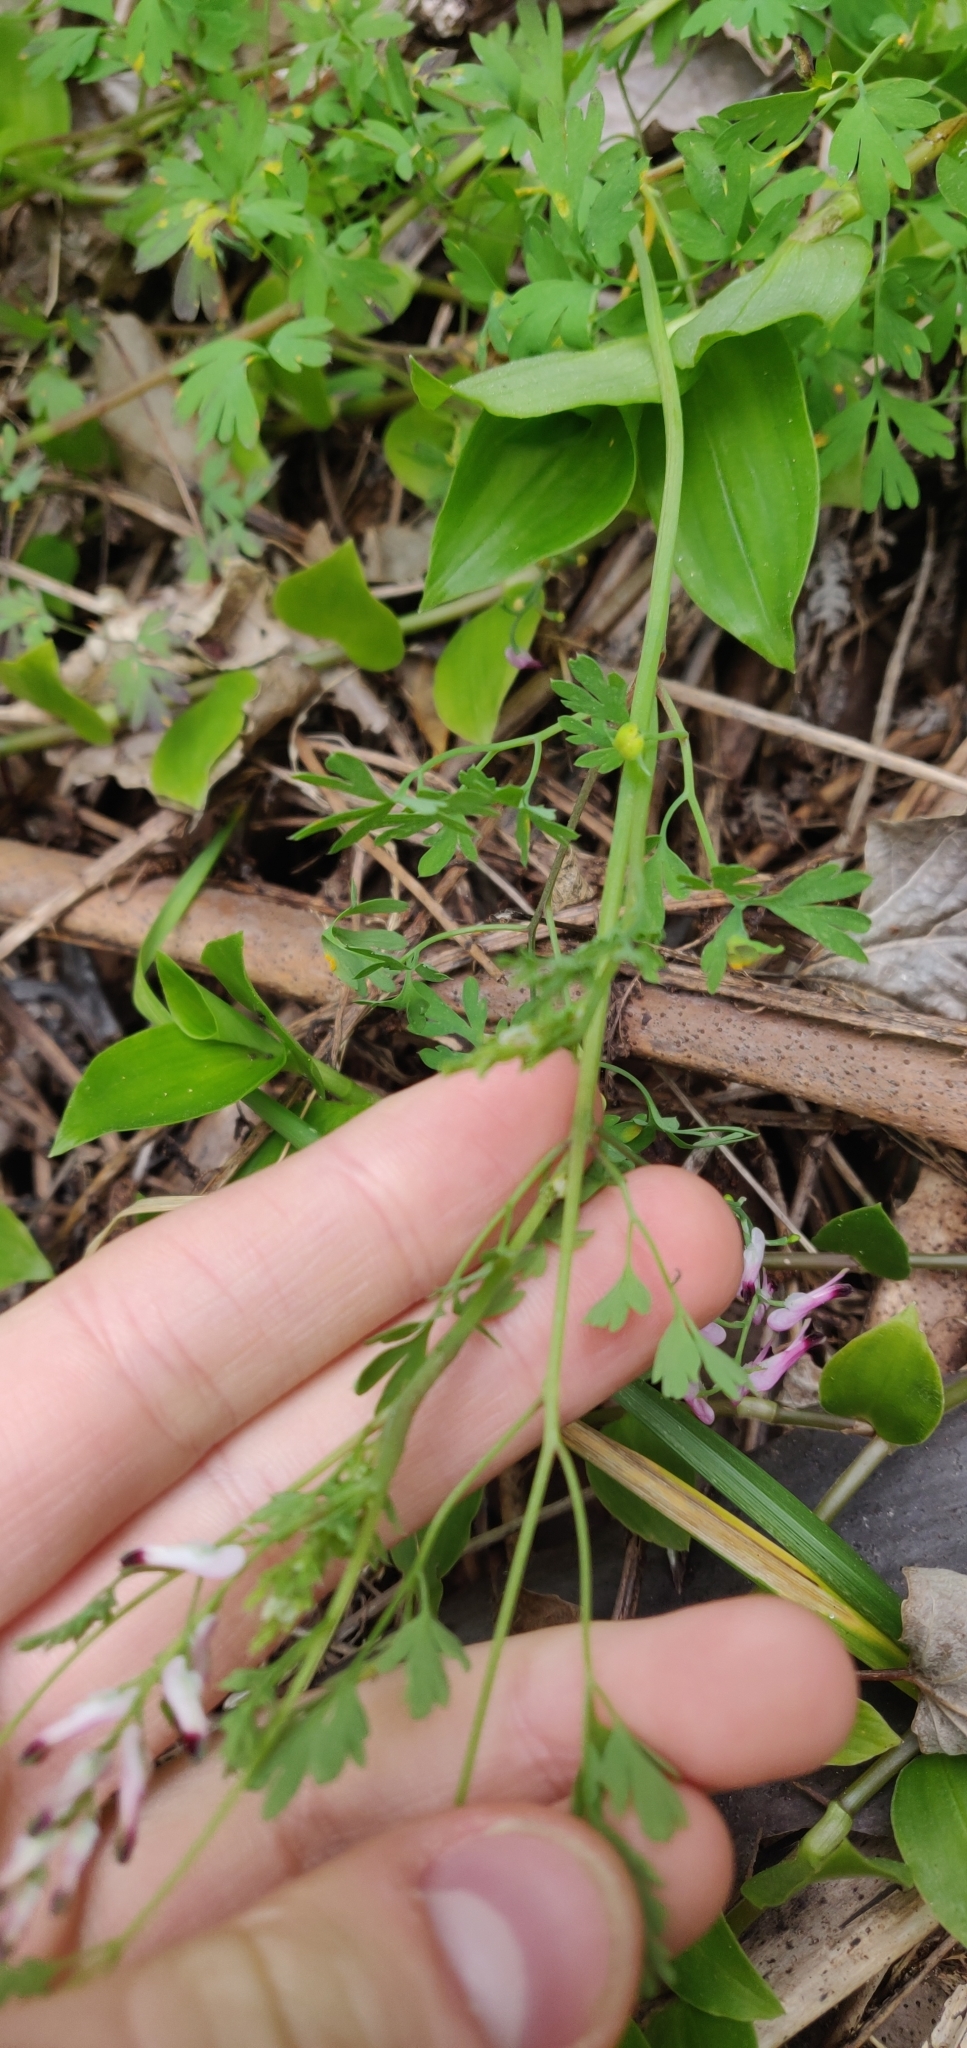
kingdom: Plantae
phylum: Tracheophyta
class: Magnoliopsida
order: Ranunculales
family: Papaveraceae
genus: Fumaria
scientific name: Fumaria muralis
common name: Common ramping-fumitory
